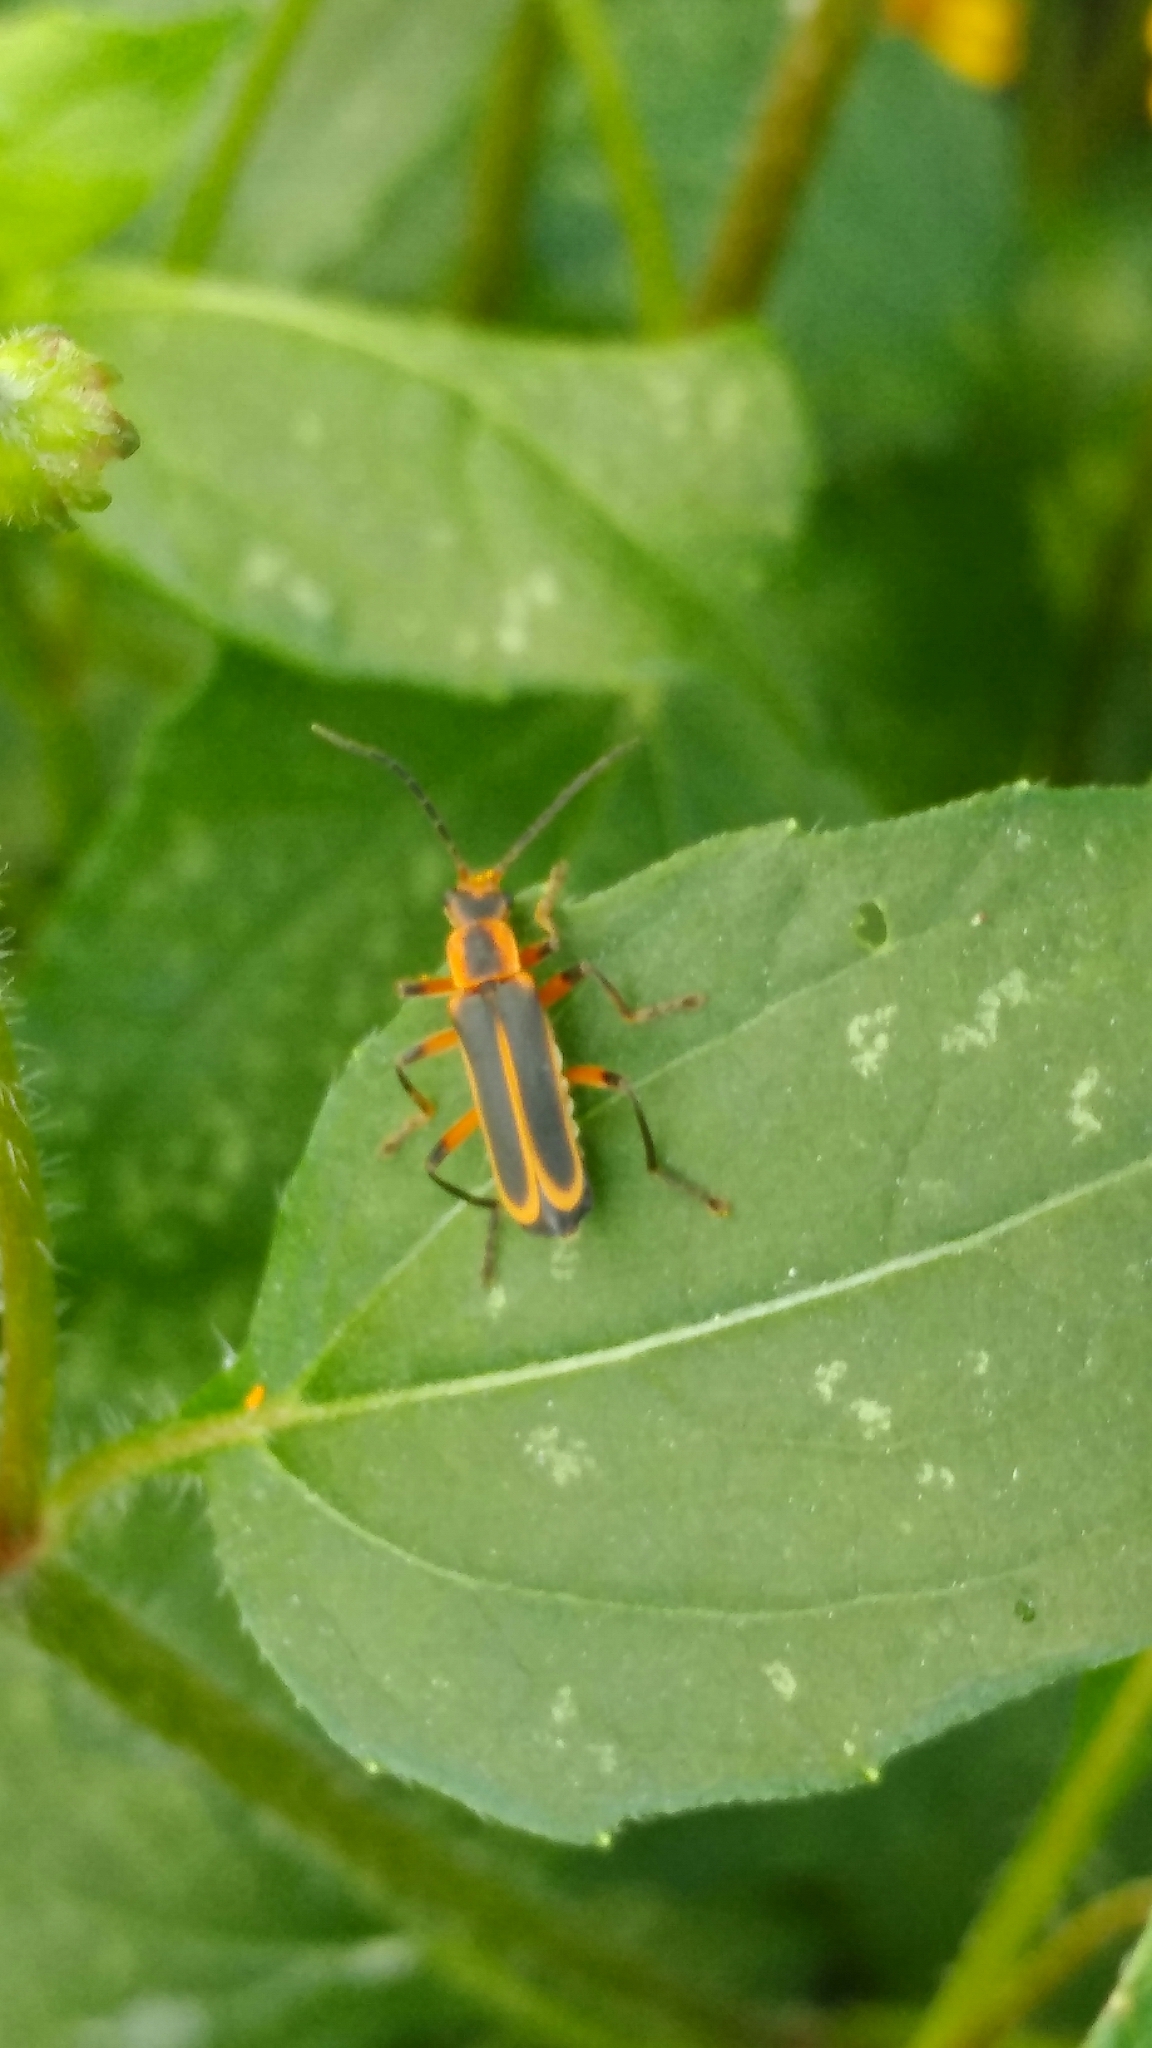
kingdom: Animalia
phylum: Arthropoda
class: Insecta
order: Coleoptera
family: Cantharidae
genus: Chauliognathus
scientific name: Chauliognathus marginatus
